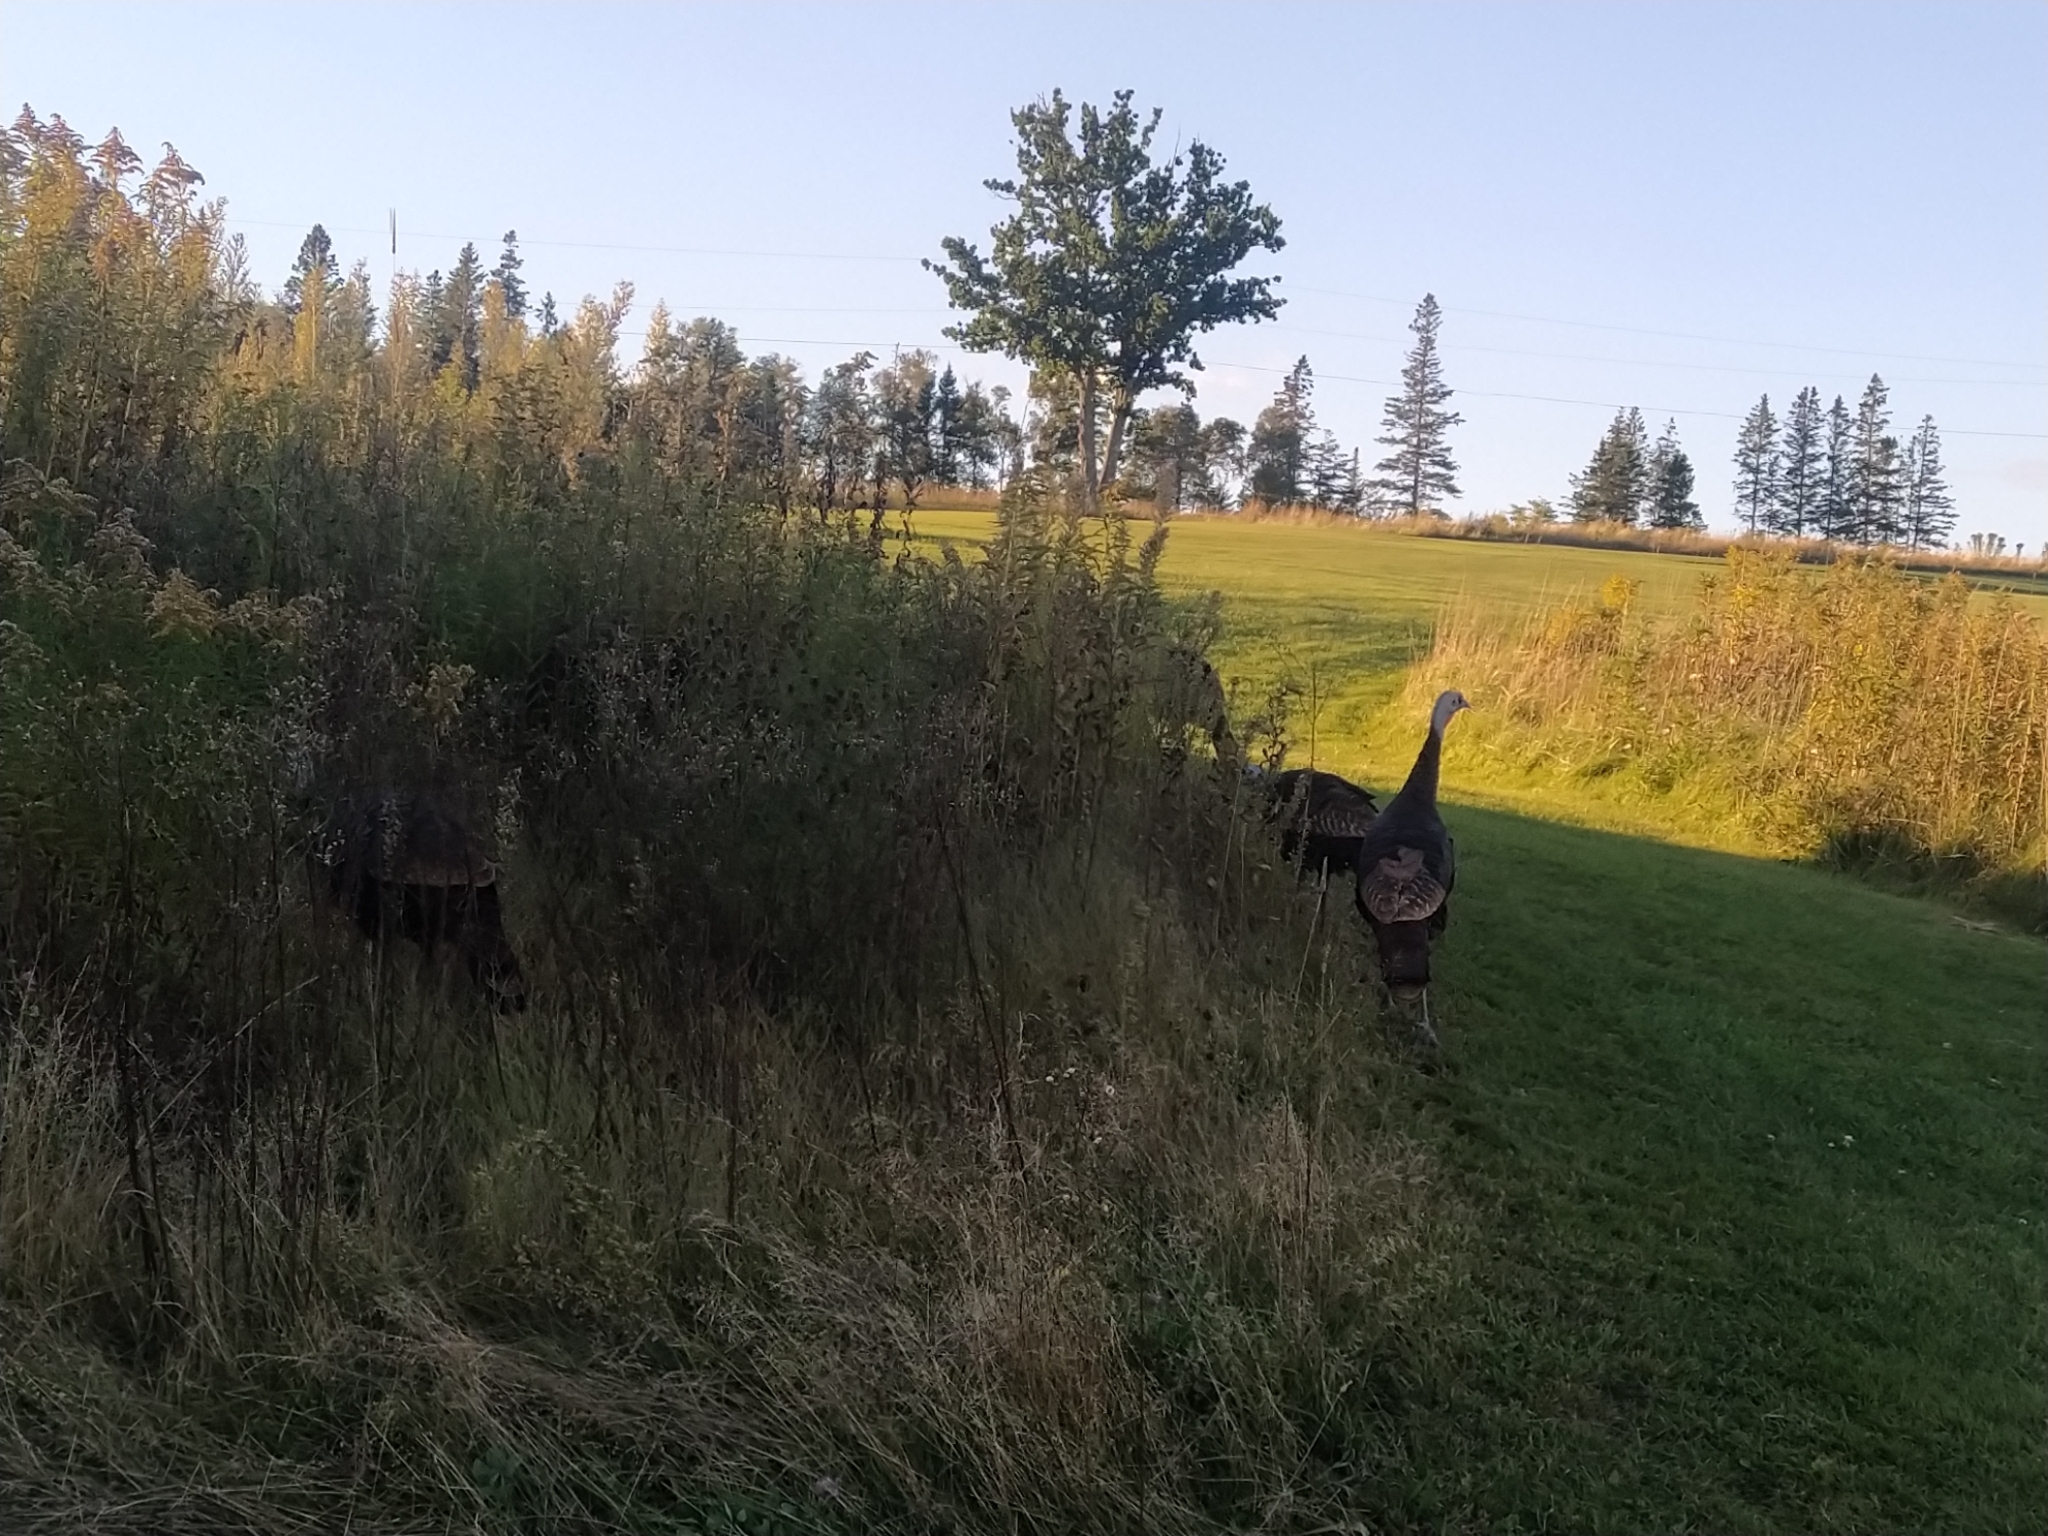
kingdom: Animalia
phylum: Chordata
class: Aves
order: Galliformes
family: Phasianidae
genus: Meleagris
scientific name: Meleagris gallopavo
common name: Wild turkey
